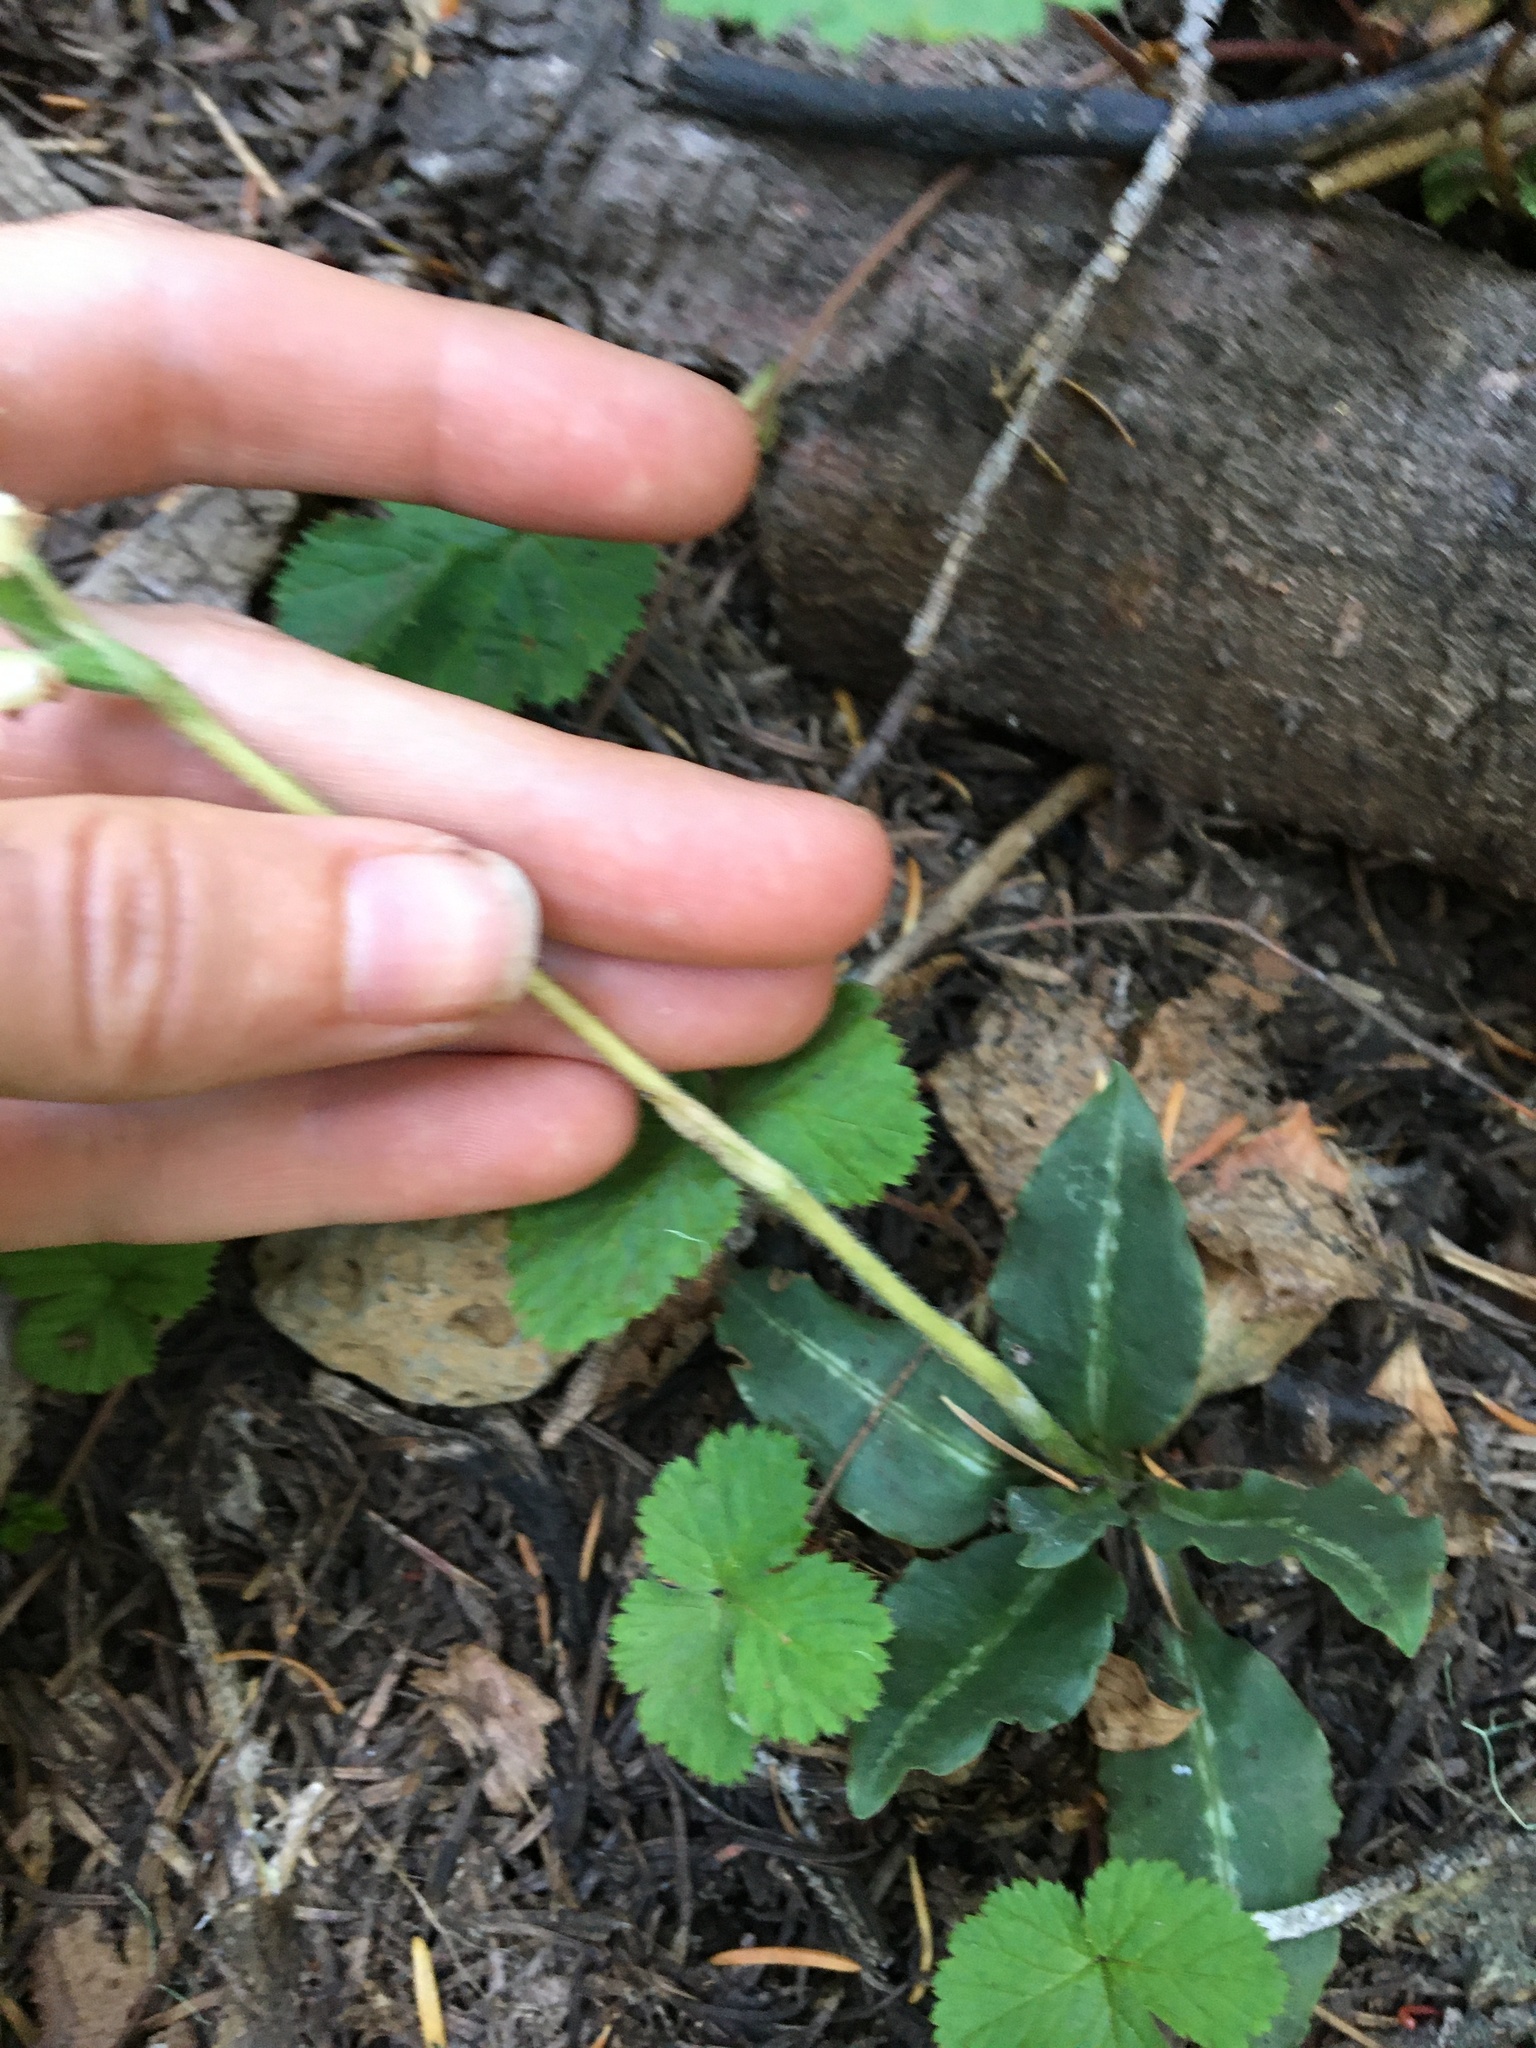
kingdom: Plantae
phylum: Tracheophyta
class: Liliopsida
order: Asparagales
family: Orchidaceae
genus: Goodyera
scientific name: Goodyera oblongifolia
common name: Giant rattlesnake-plantain
